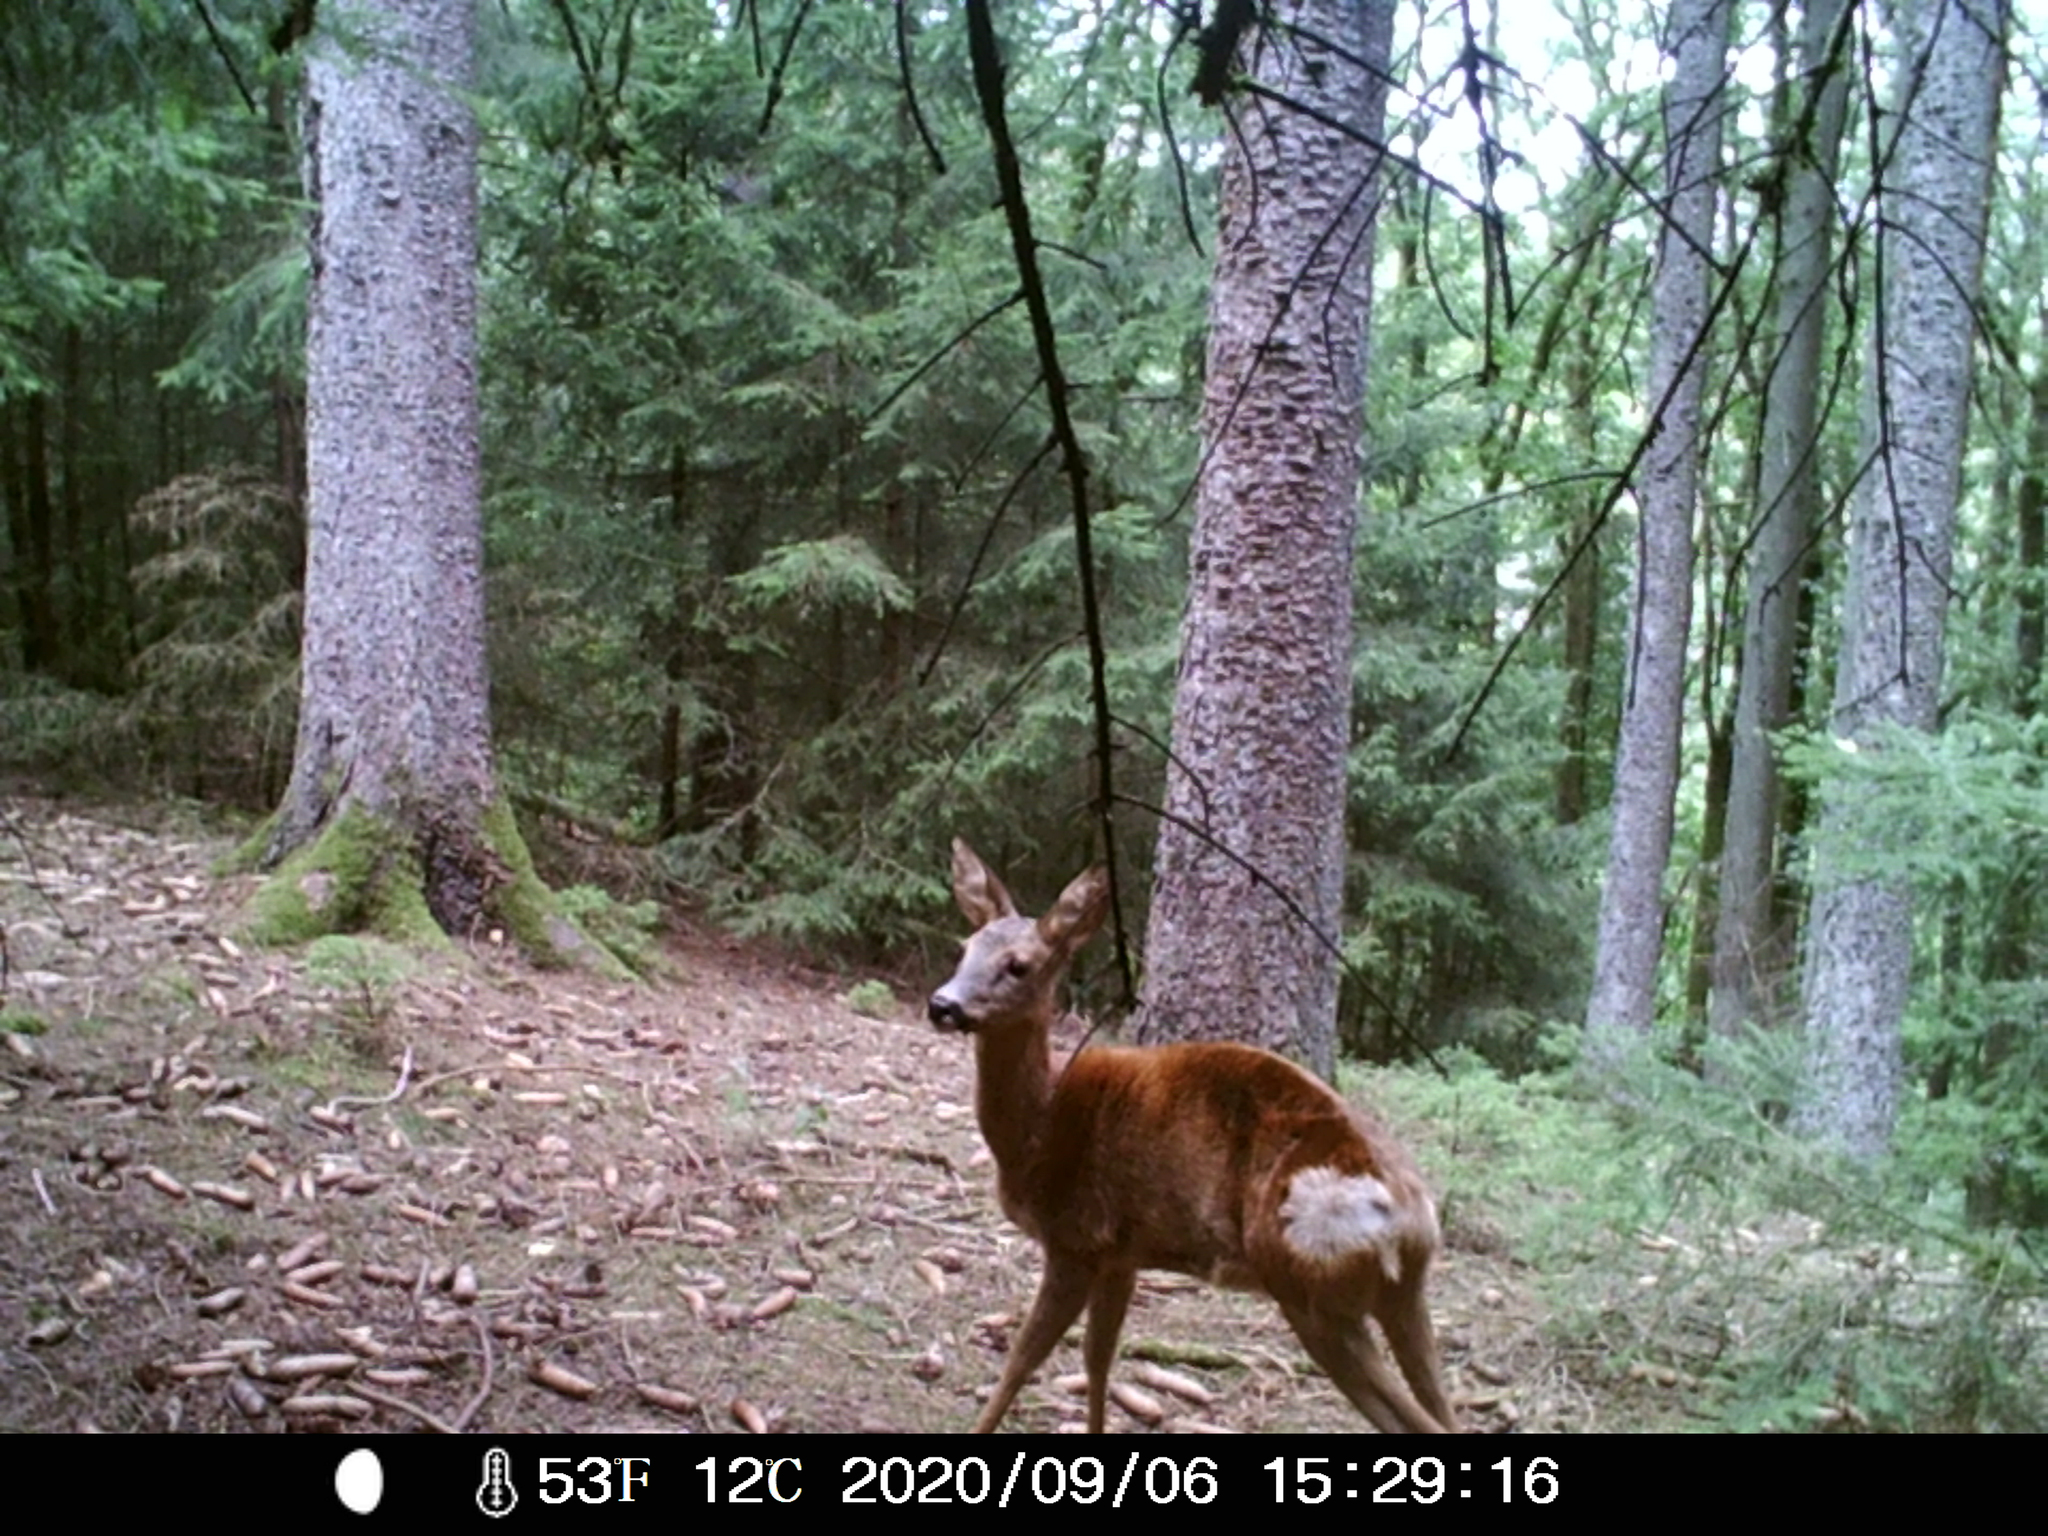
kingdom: Animalia
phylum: Chordata
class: Mammalia
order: Artiodactyla
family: Cervidae
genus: Capreolus
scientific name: Capreolus capreolus
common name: Western roe deer
